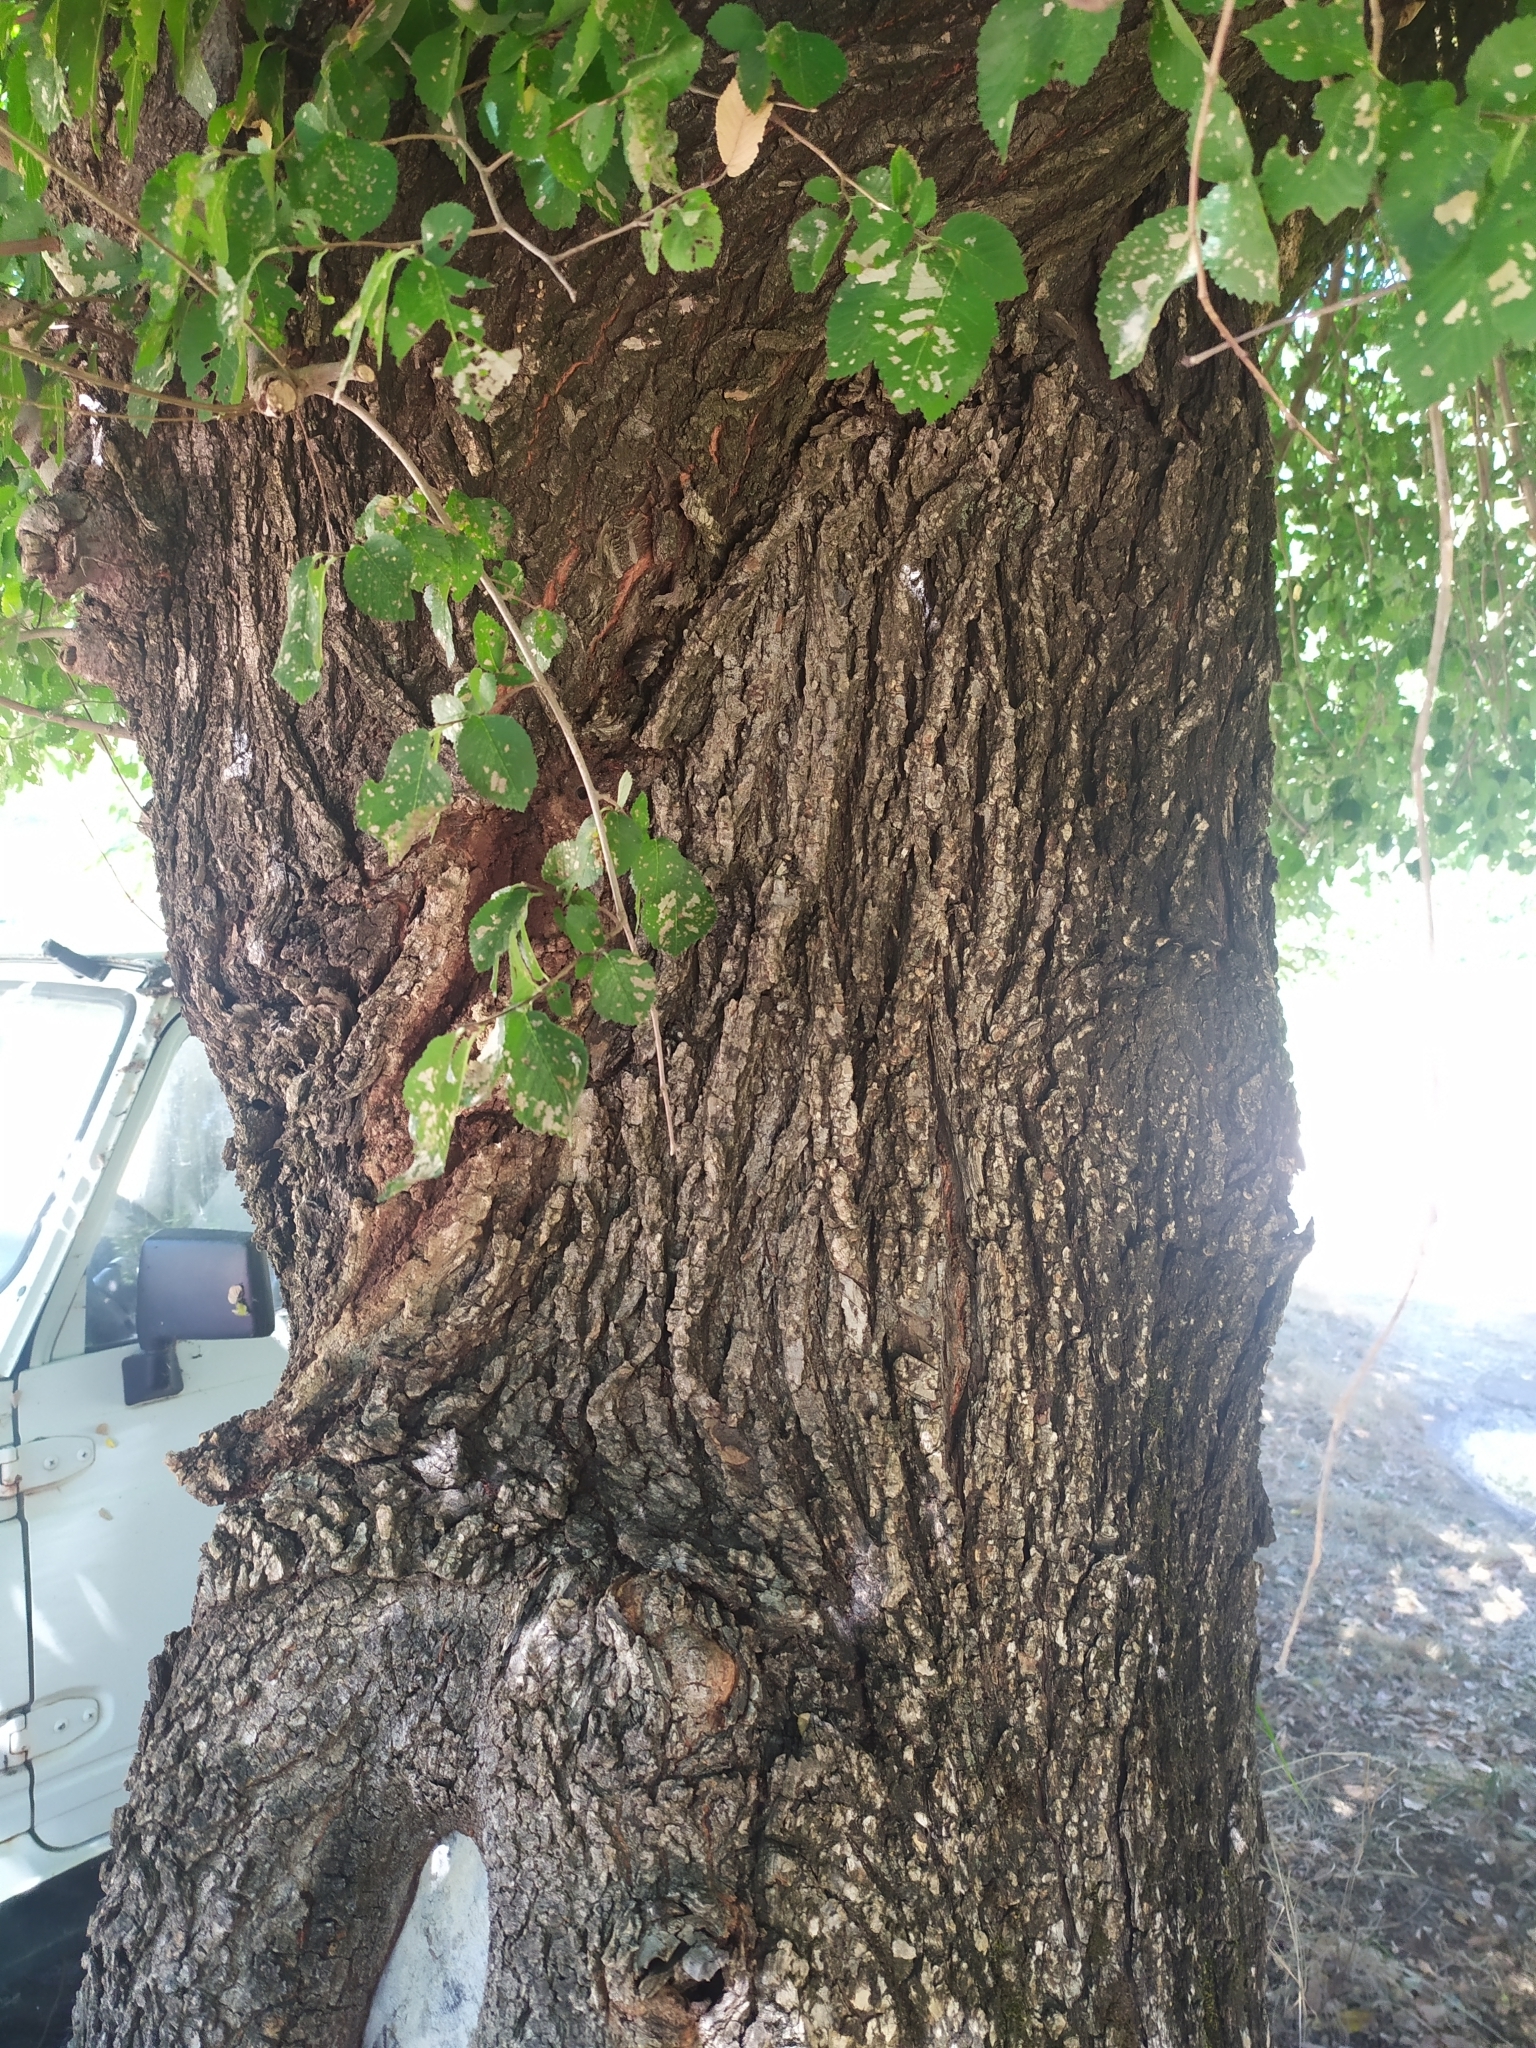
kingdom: Plantae
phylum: Tracheophyta
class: Magnoliopsida
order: Rosales
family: Ulmaceae
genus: Ulmus
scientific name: Ulmus minor
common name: Small-leaved elm
